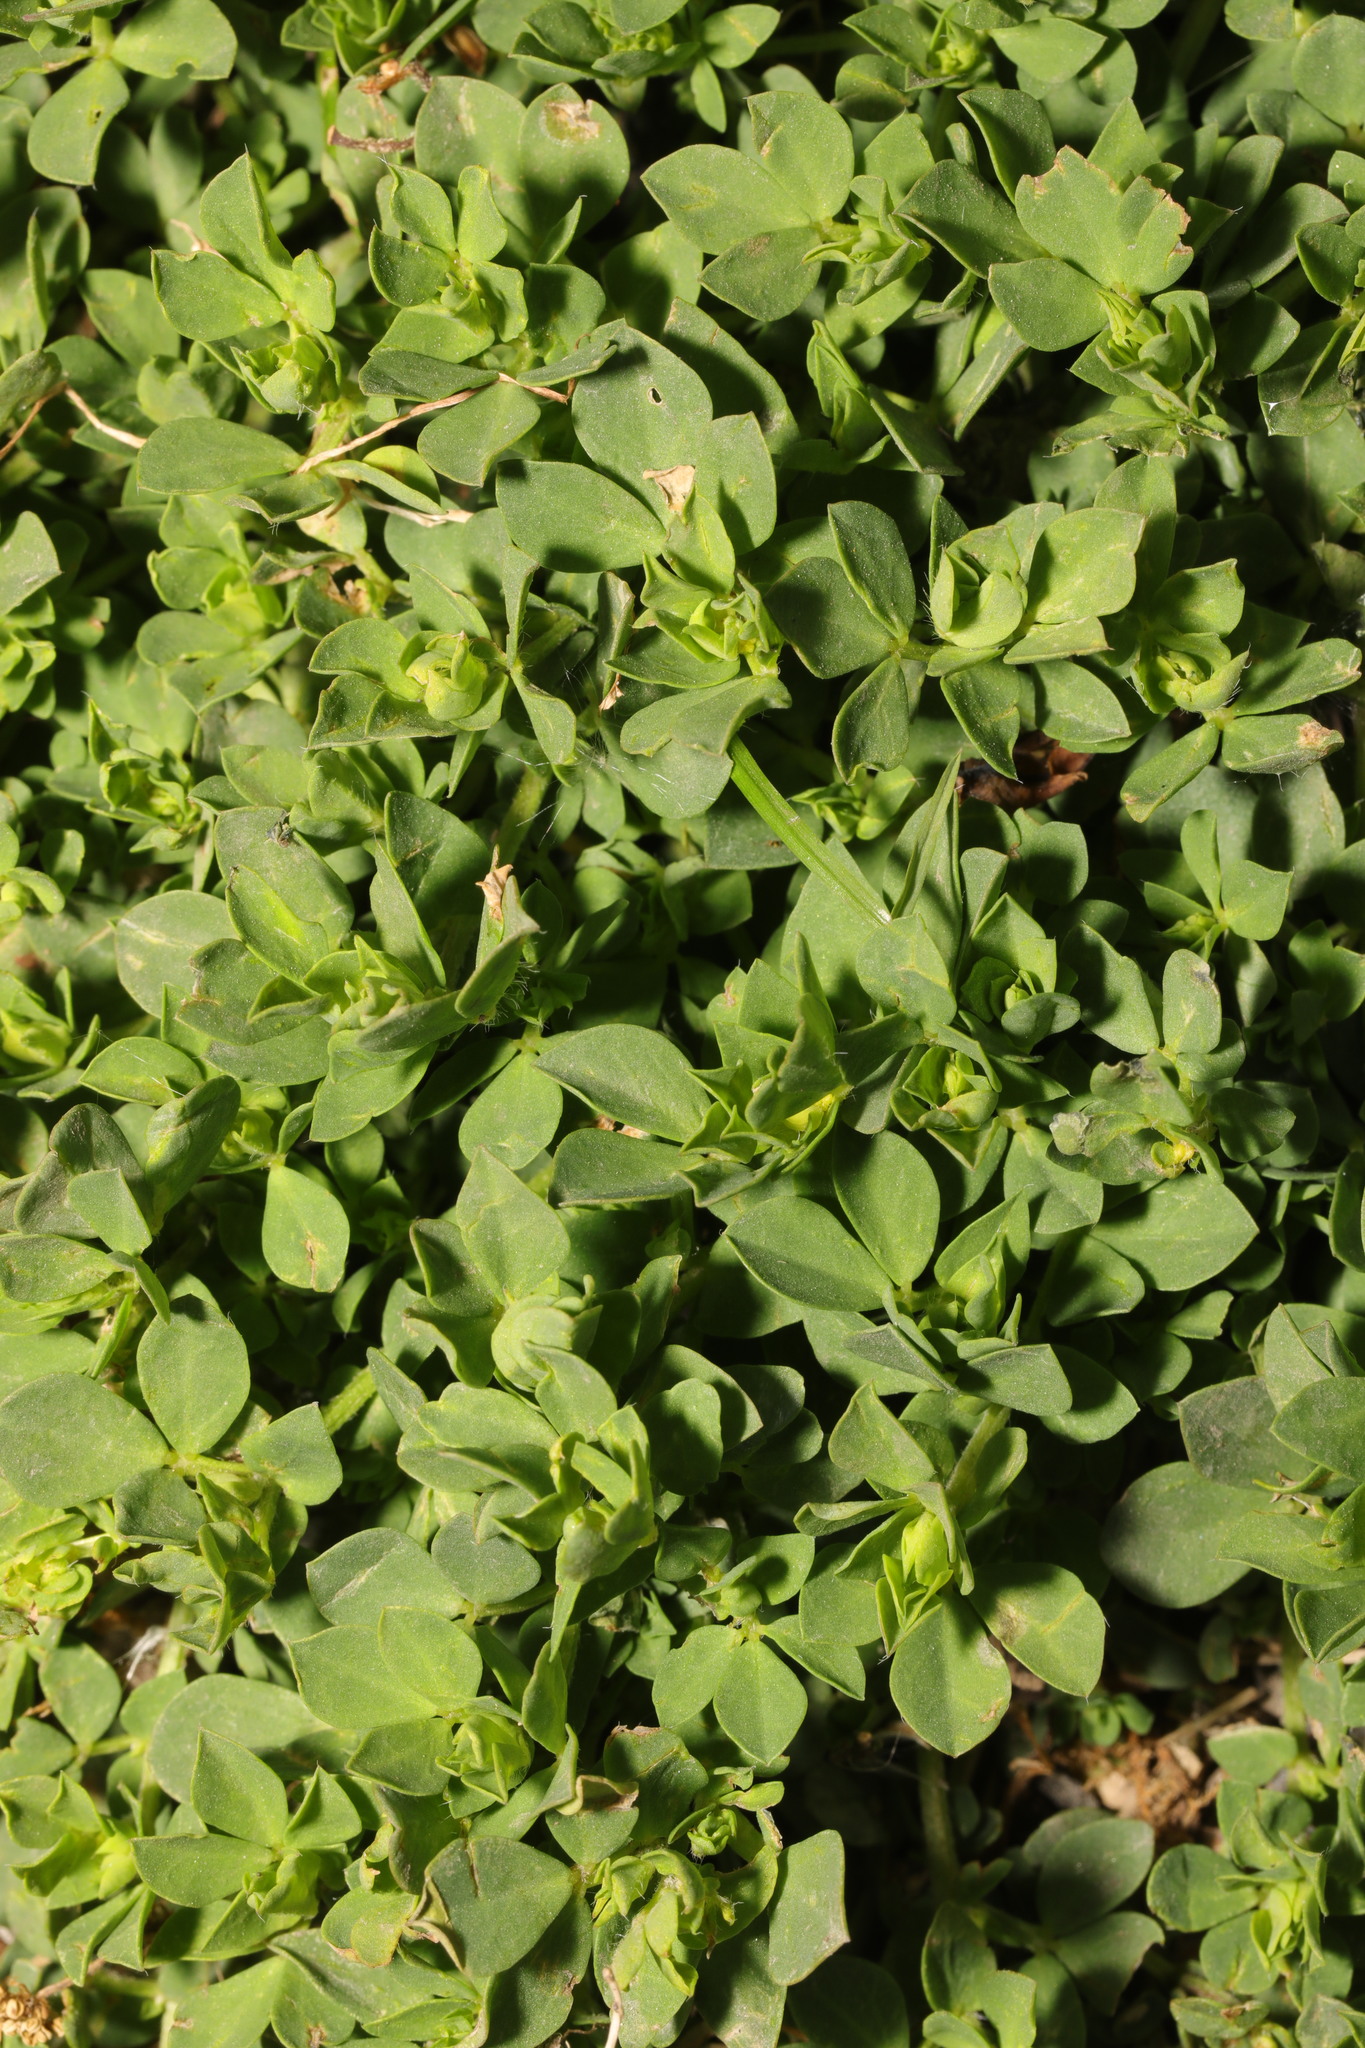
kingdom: Plantae
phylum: Tracheophyta
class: Magnoliopsida
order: Fabales
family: Fabaceae
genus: Lotus
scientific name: Lotus corniculatus
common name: Common bird's-foot-trefoil
